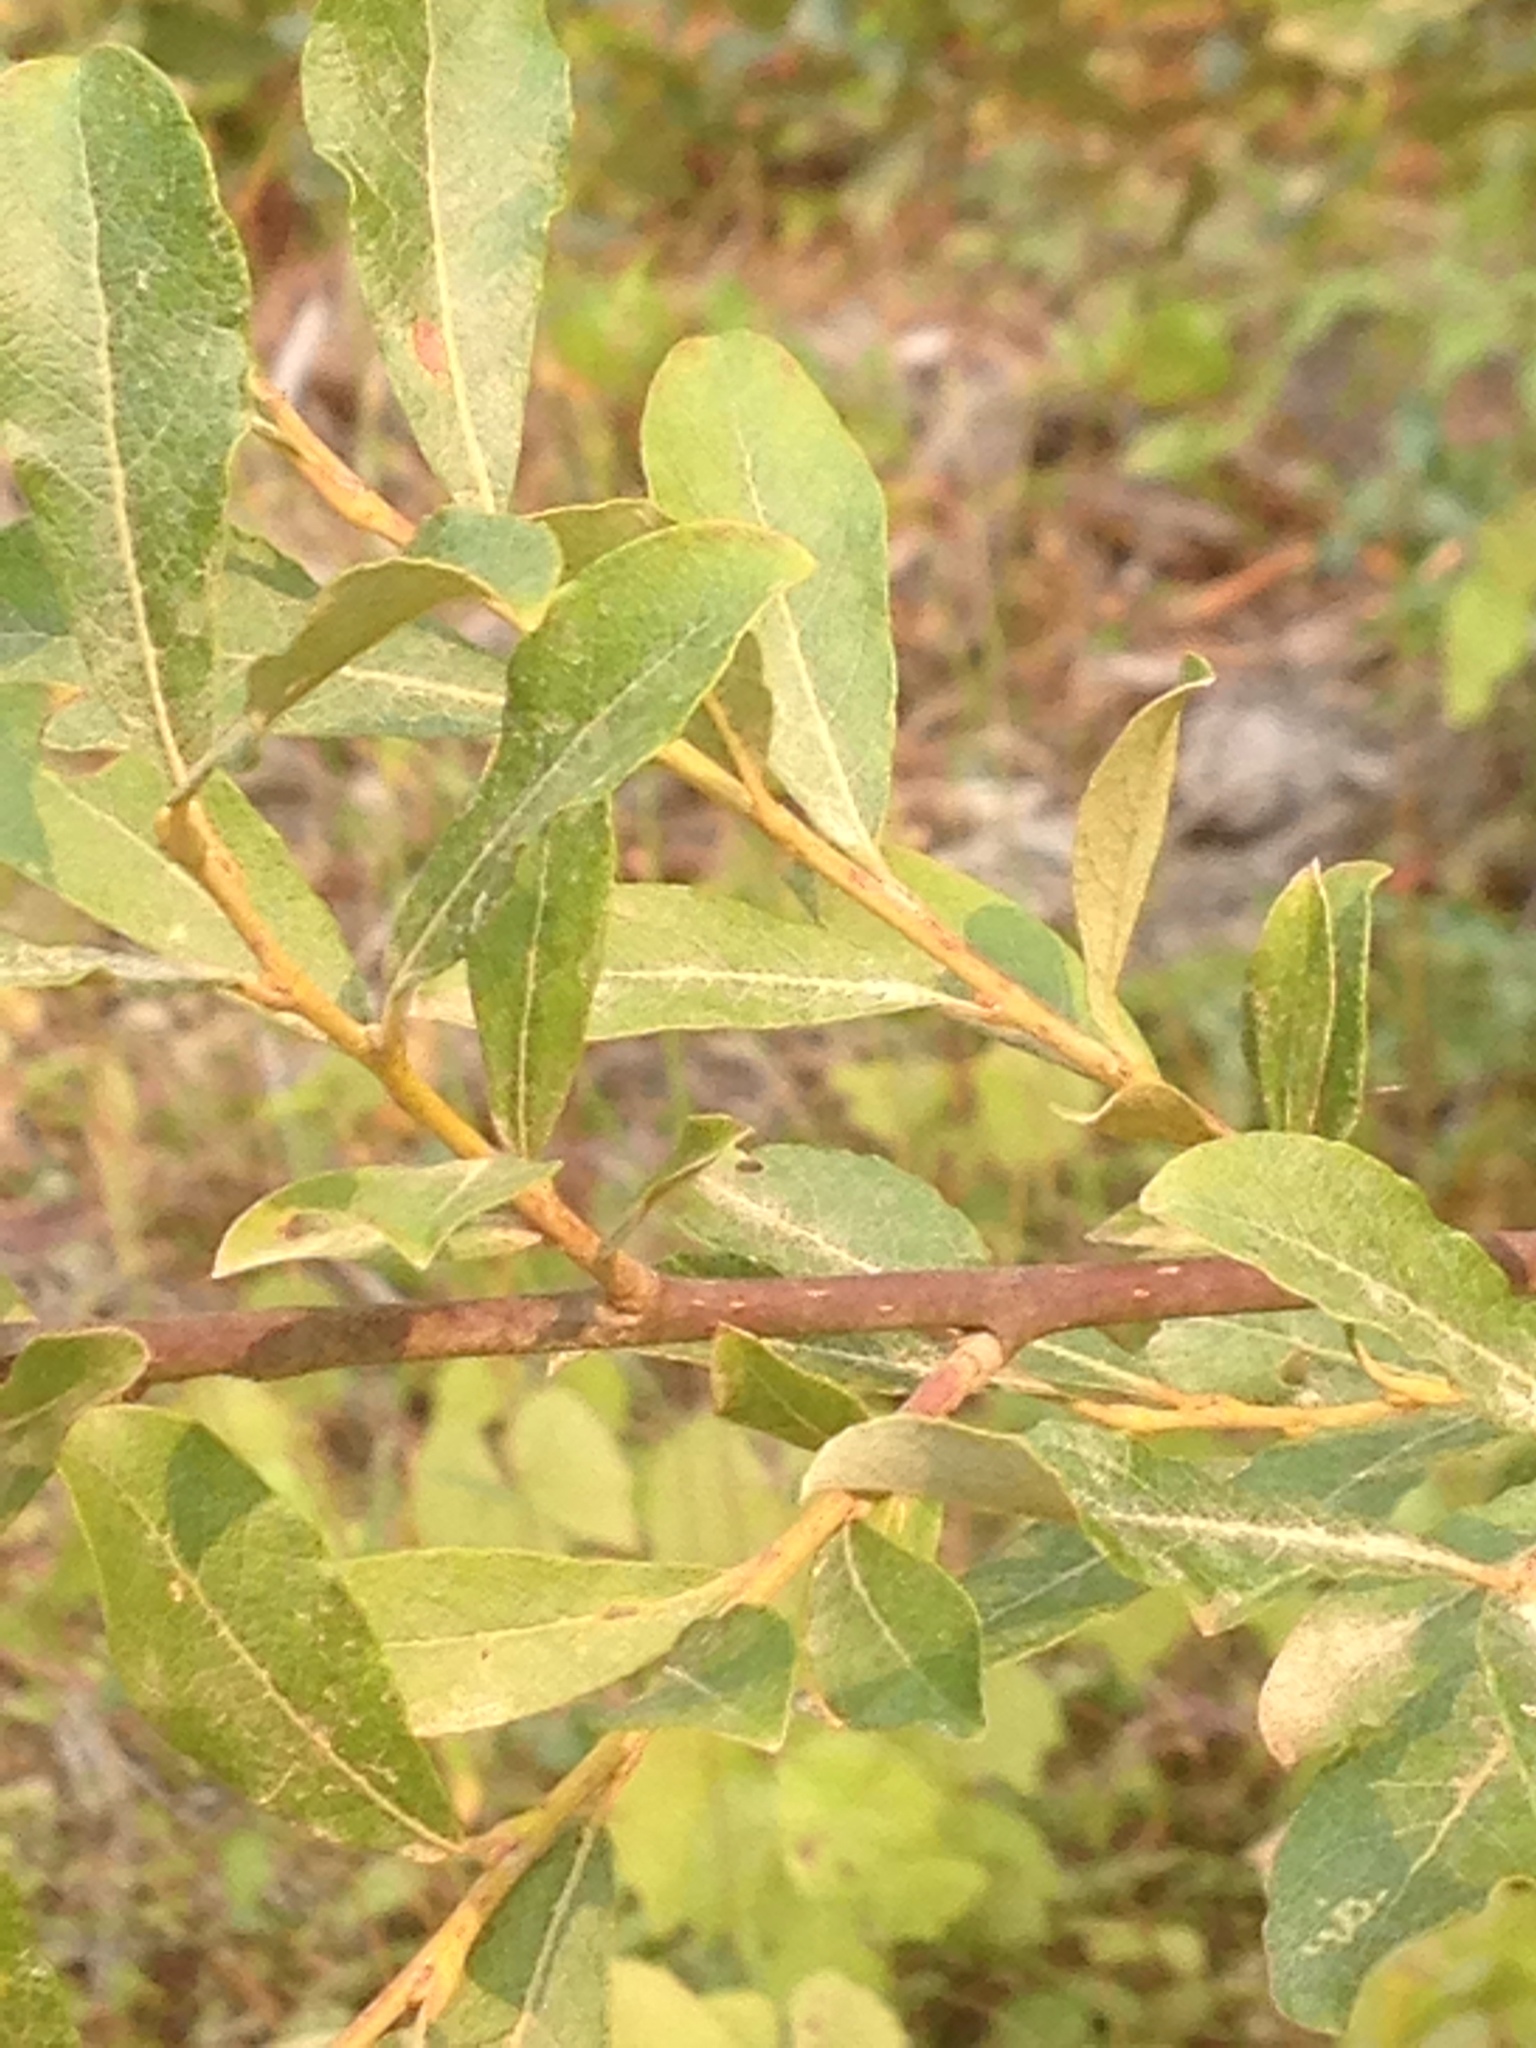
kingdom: Plantae
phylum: Tracheophyta
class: Magnoliopsida
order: Malpighiales
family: Salicaceae
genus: Salix
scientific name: Salix scouleriana
